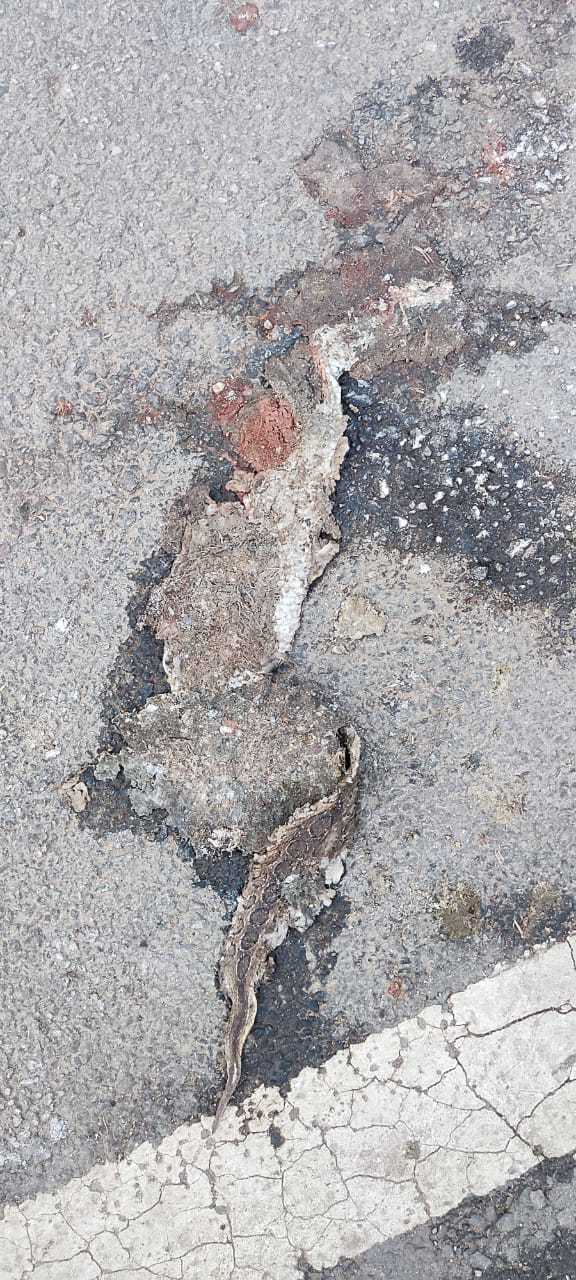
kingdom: Animalia
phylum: Chordata
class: Squamata
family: Viperidae
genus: Daboia
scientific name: Daboia russelii
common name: Western russel’s viper
